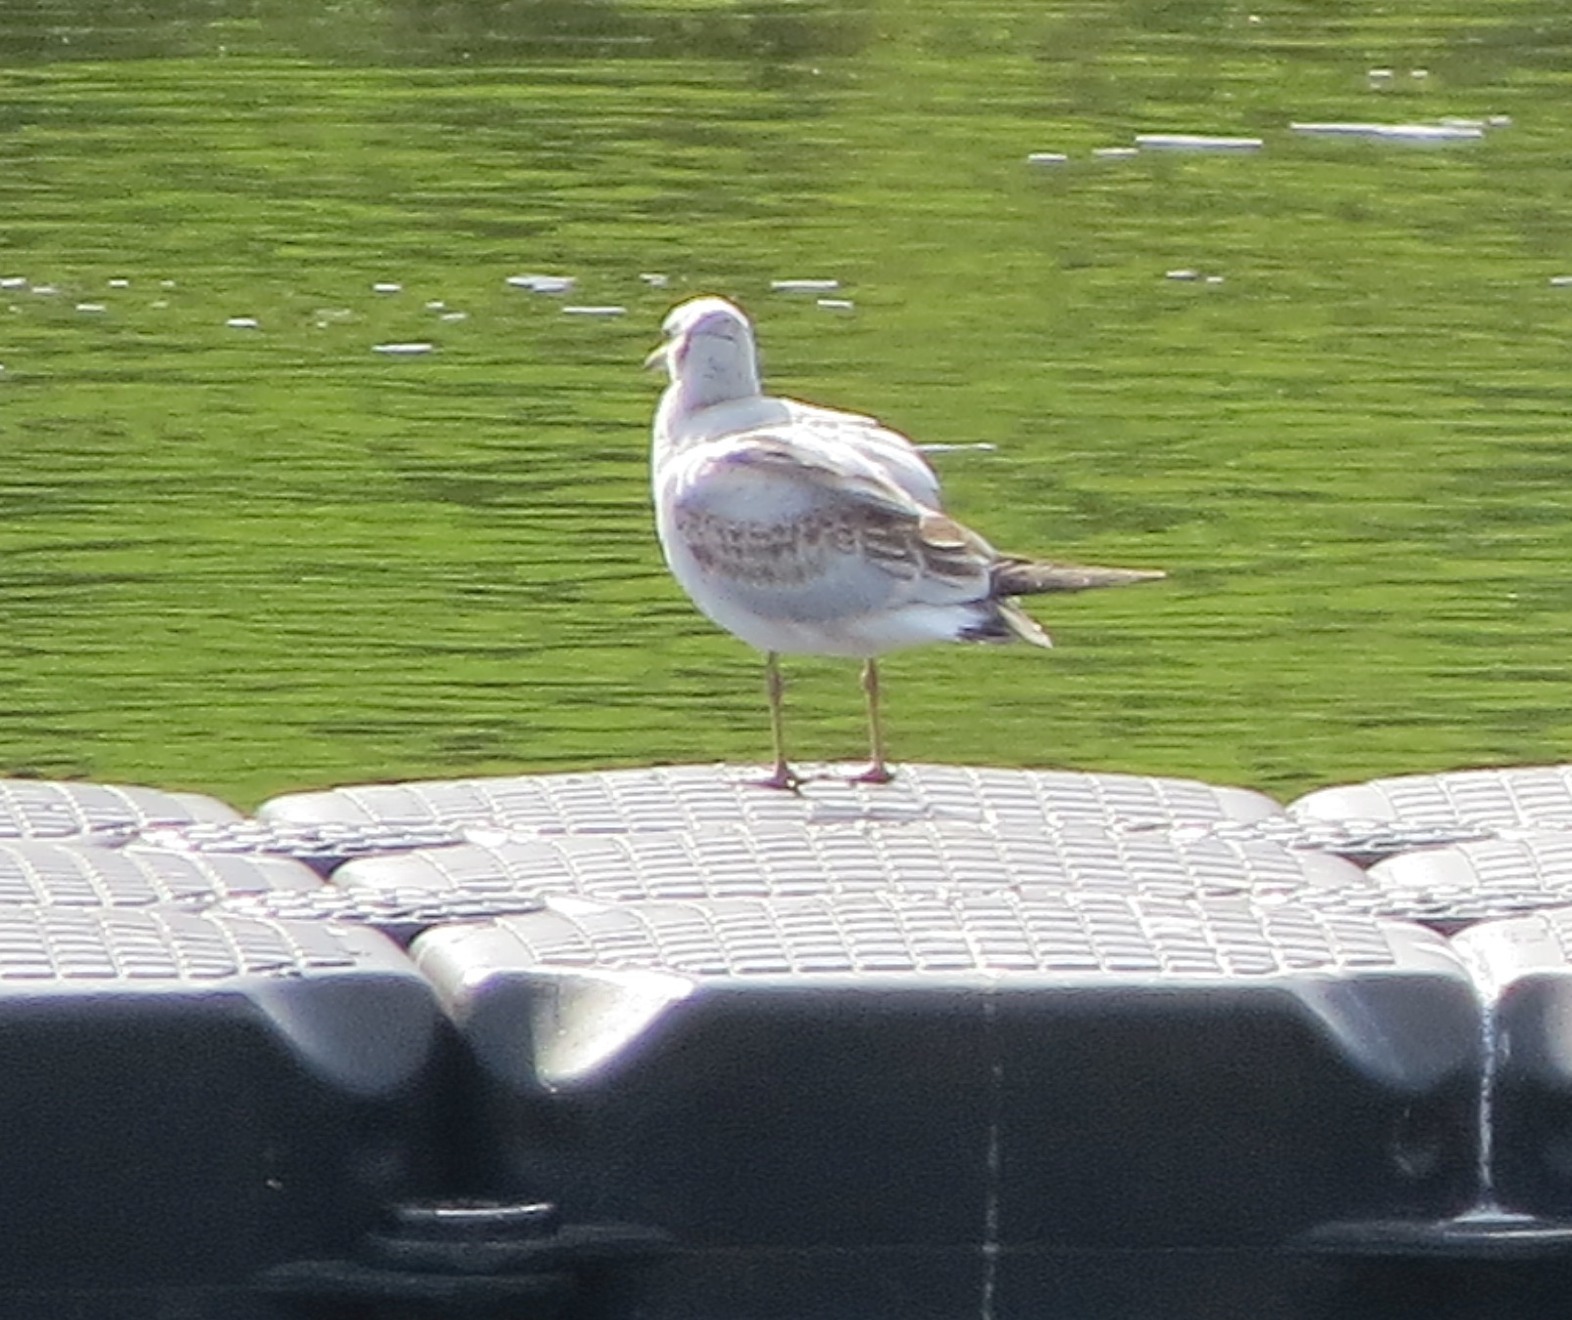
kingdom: Animalia
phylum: Chordata
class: Aves
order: Charadriiformes
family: Laridae
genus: Chroicocephalus
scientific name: Chroicocephalus ridibundus
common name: Black-headed gull
